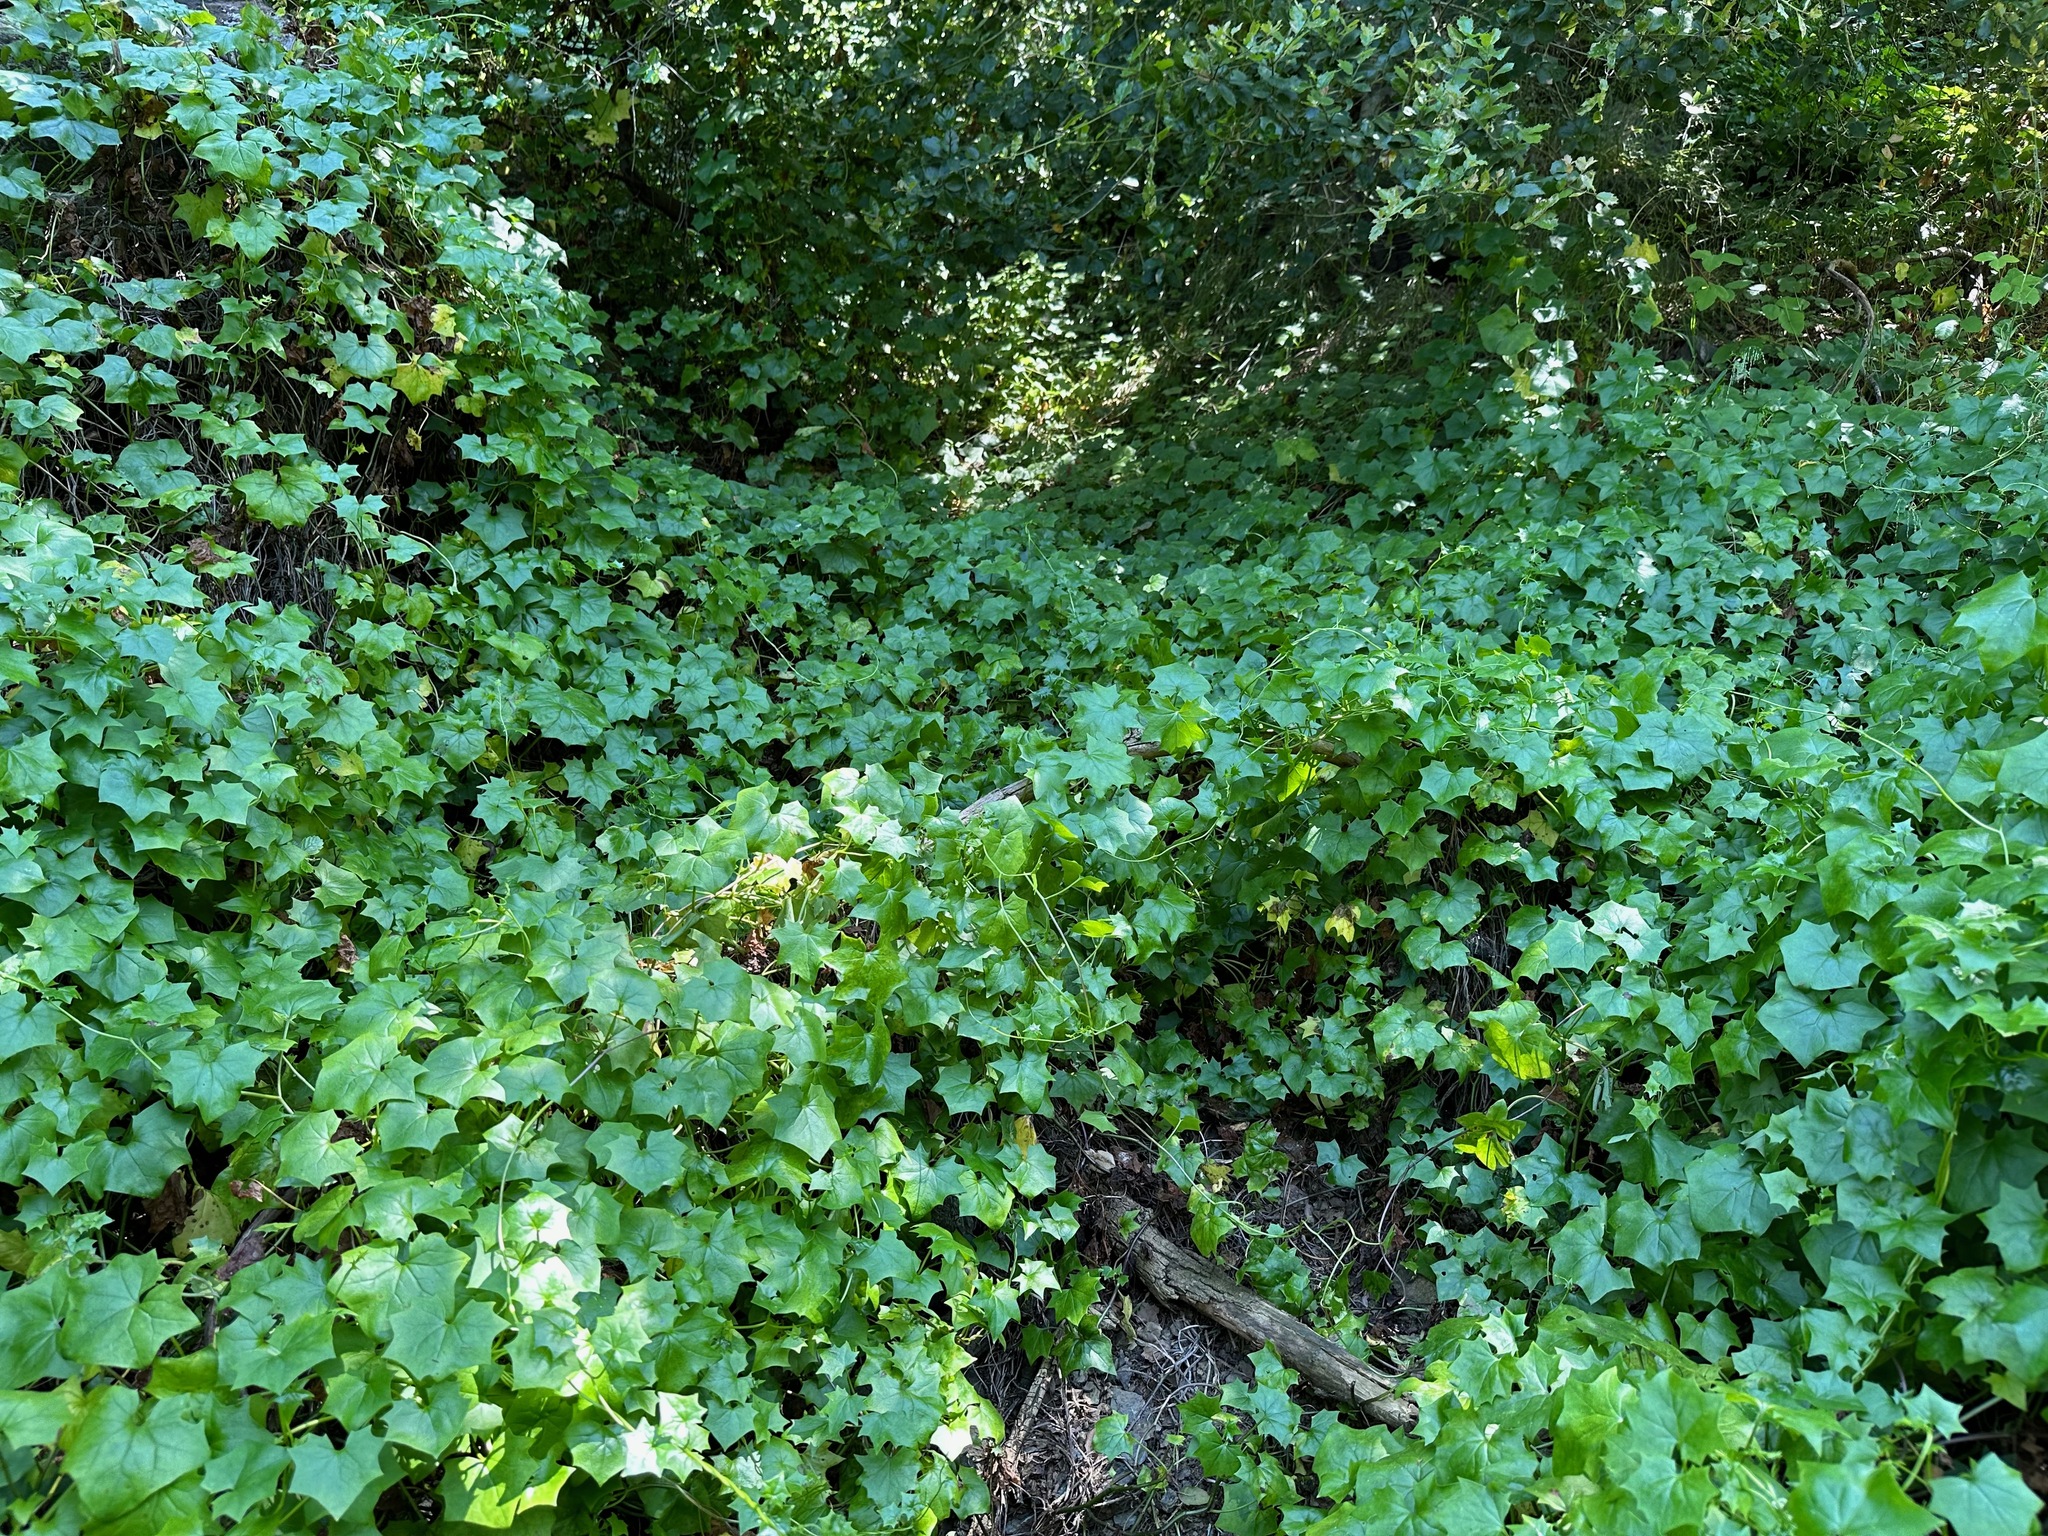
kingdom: Plantae
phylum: Tracheophyta
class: Magnoliopsida
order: Asterales
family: Asteraceae
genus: Delairea
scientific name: Delairea odorata
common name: Cape-ivy
